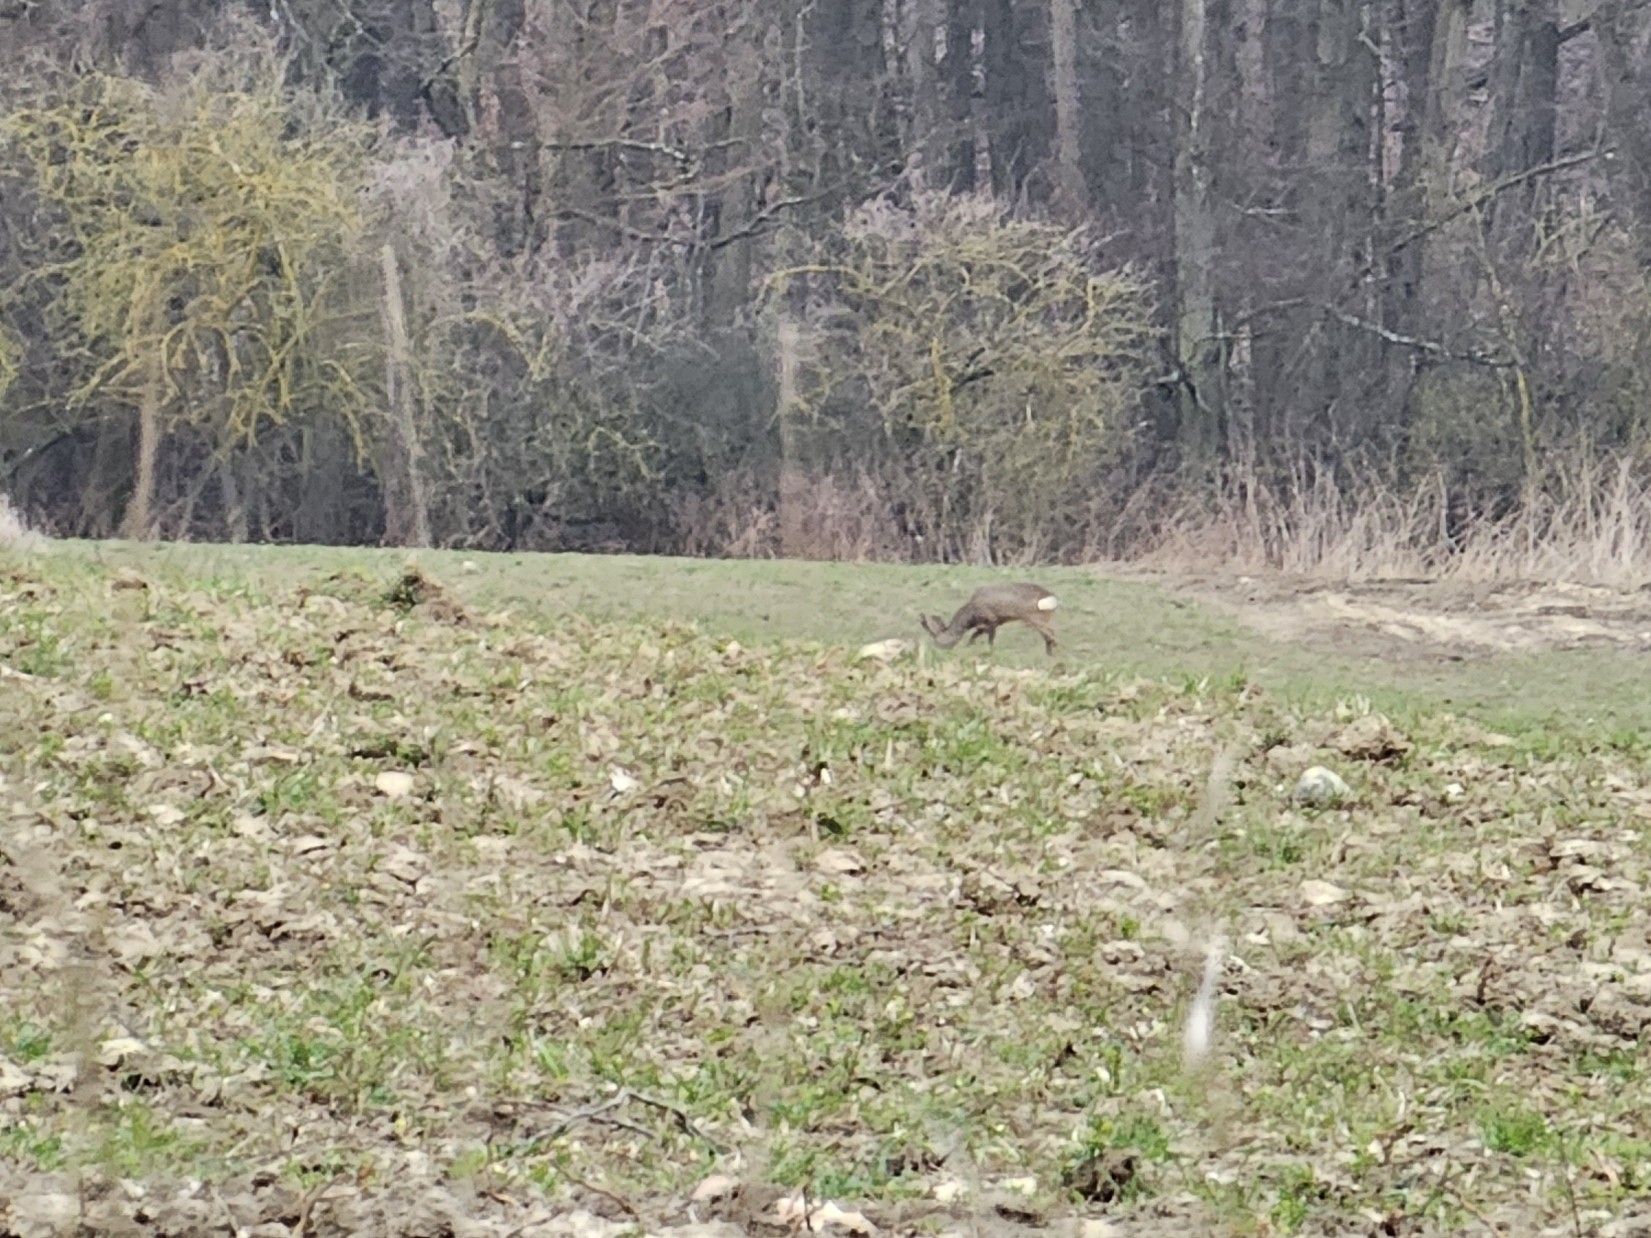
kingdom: Animalia
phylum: Chordata
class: Mammalia
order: Artiodactyla
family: Cervidae
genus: Capreolus
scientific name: Capreolus capreolus
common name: Western roe deer
